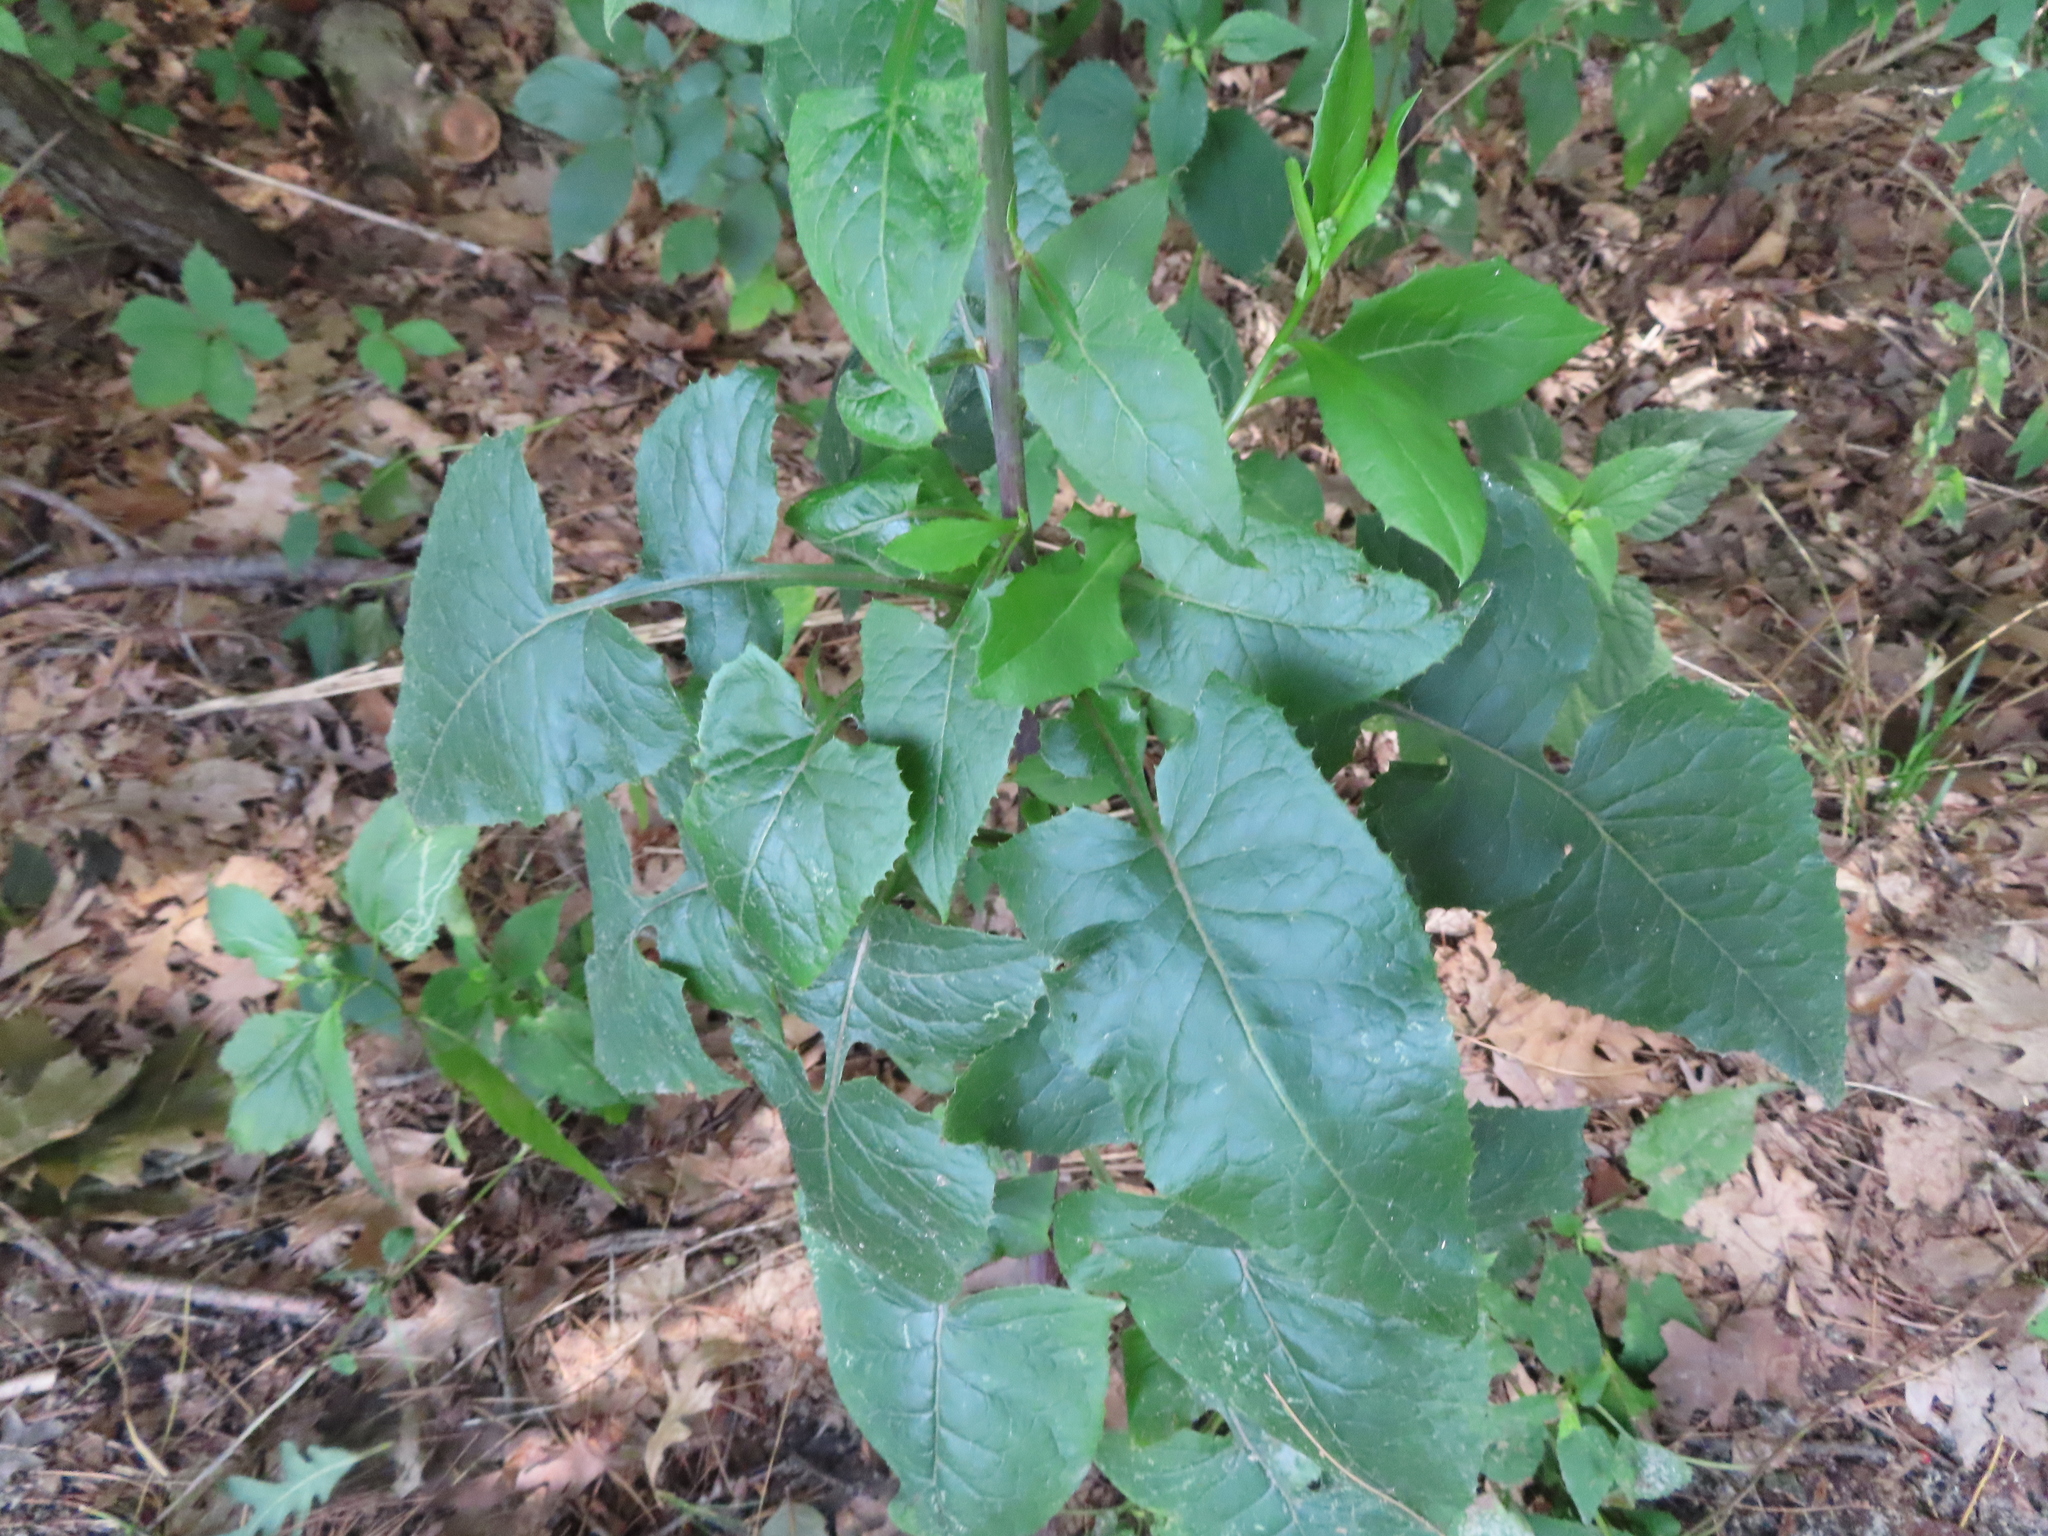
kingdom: Plantae
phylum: Tracheophyta
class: Magnoliopsida
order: Asterales
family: Asteraceae
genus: Lactuca
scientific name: Lactuca floridana
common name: Woodland lettuce
